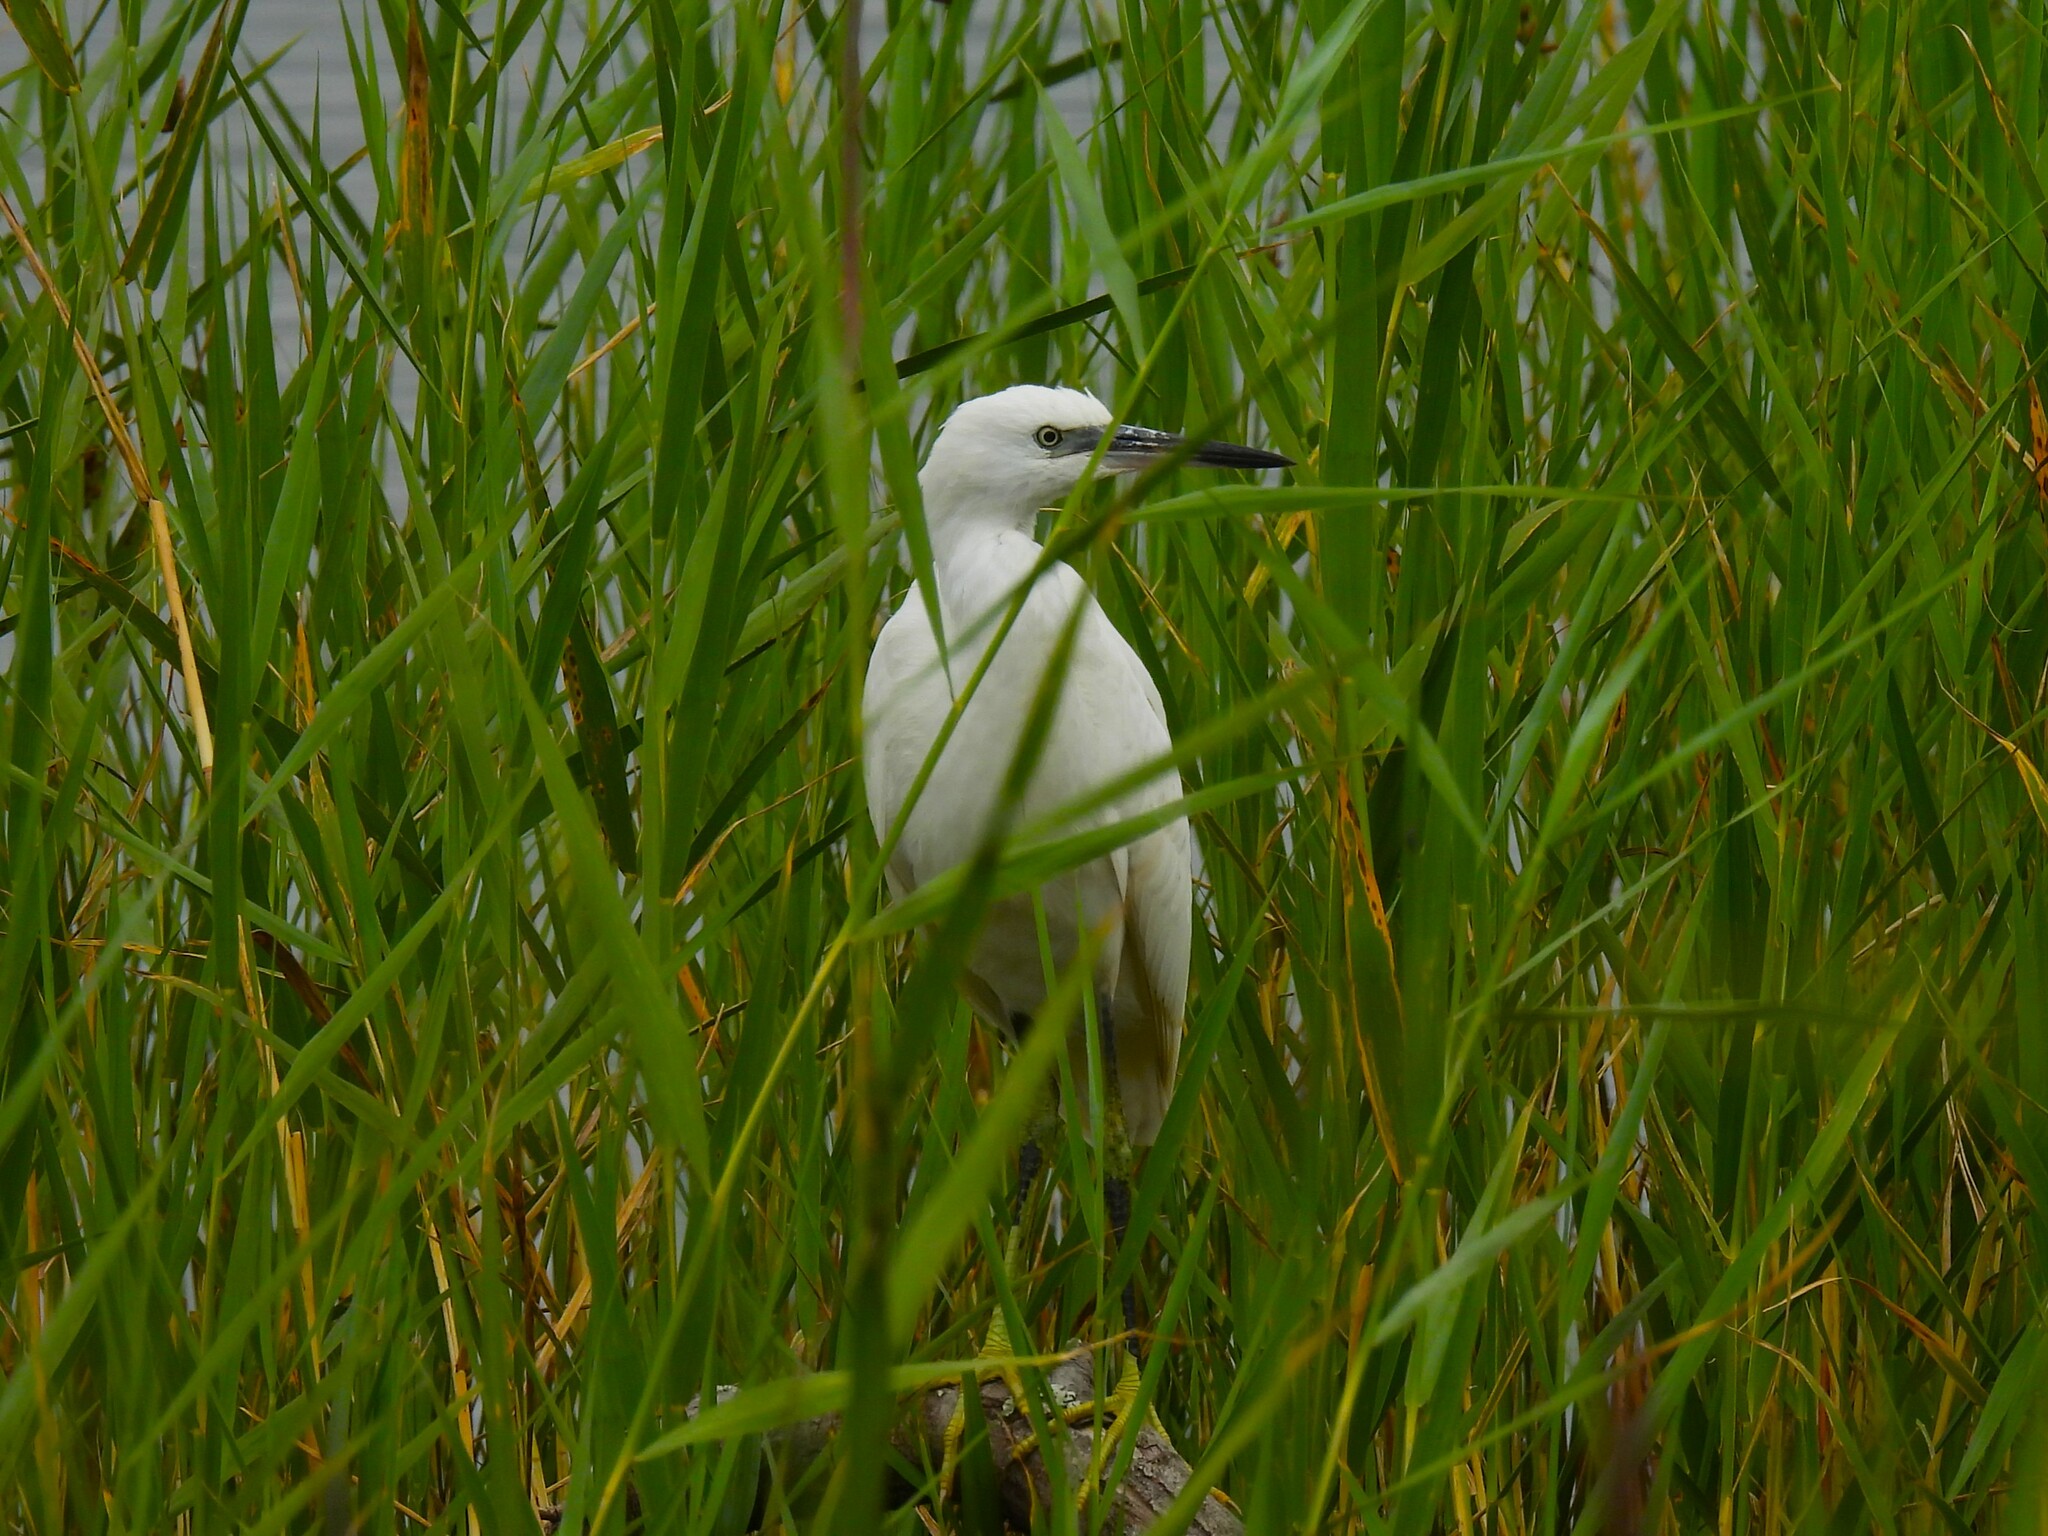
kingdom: Animalia
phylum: Chordata
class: Aves
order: Pelecaniformes
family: Ardeidae
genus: Egretta
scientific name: Egretta garzetta
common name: Little egret
